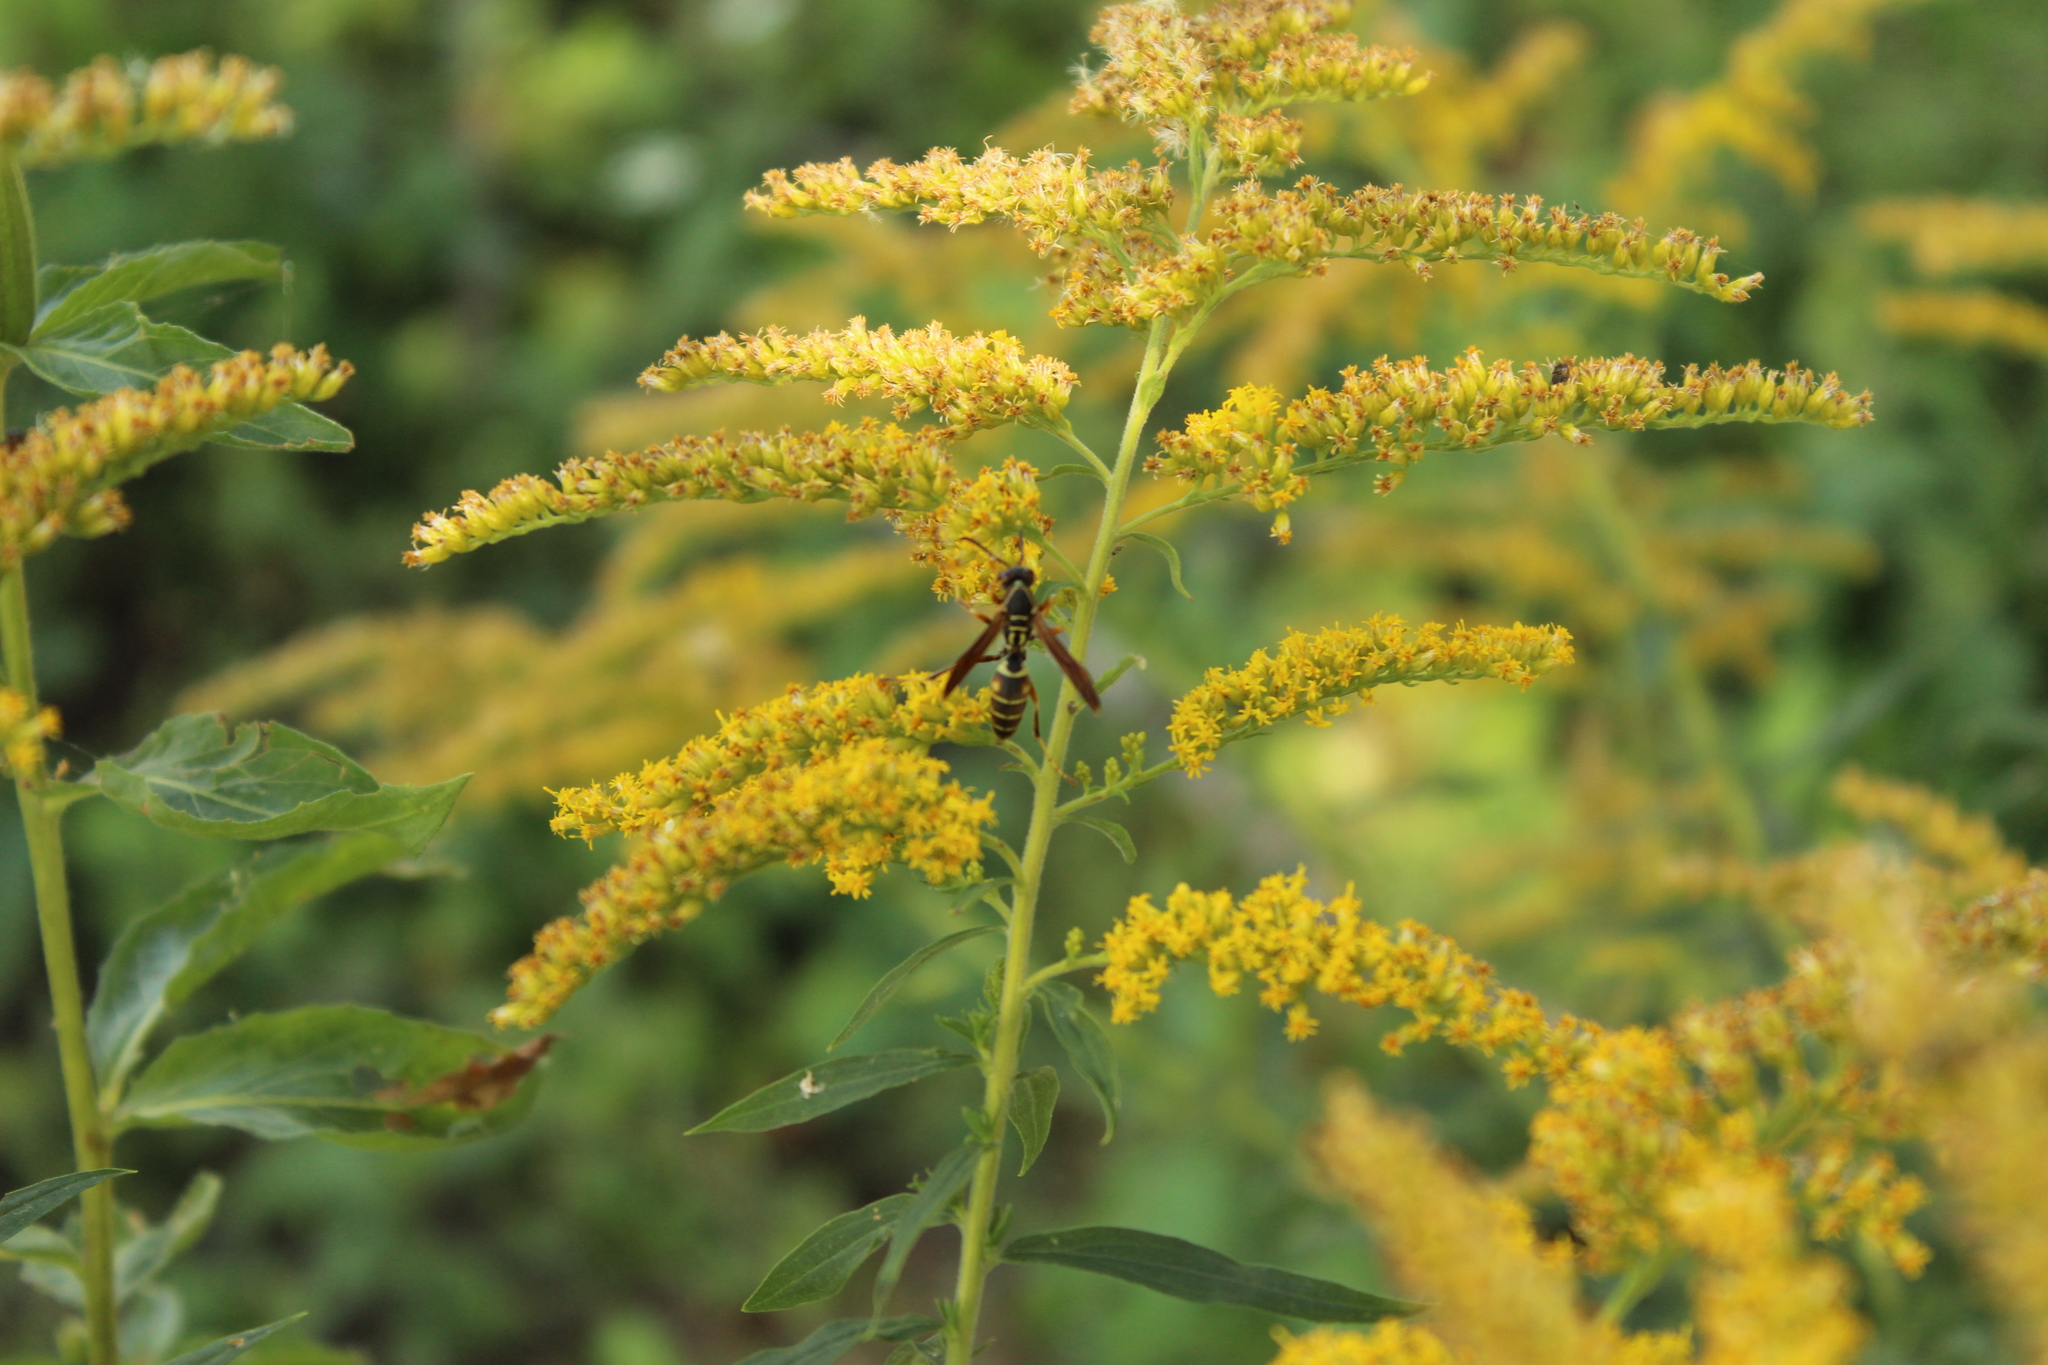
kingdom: Animalia
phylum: Arthropoda
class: Insecta
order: Hymenoptera
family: Eumenidae
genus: Polistes
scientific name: Polistes fuscatus
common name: Dark paper wasp
